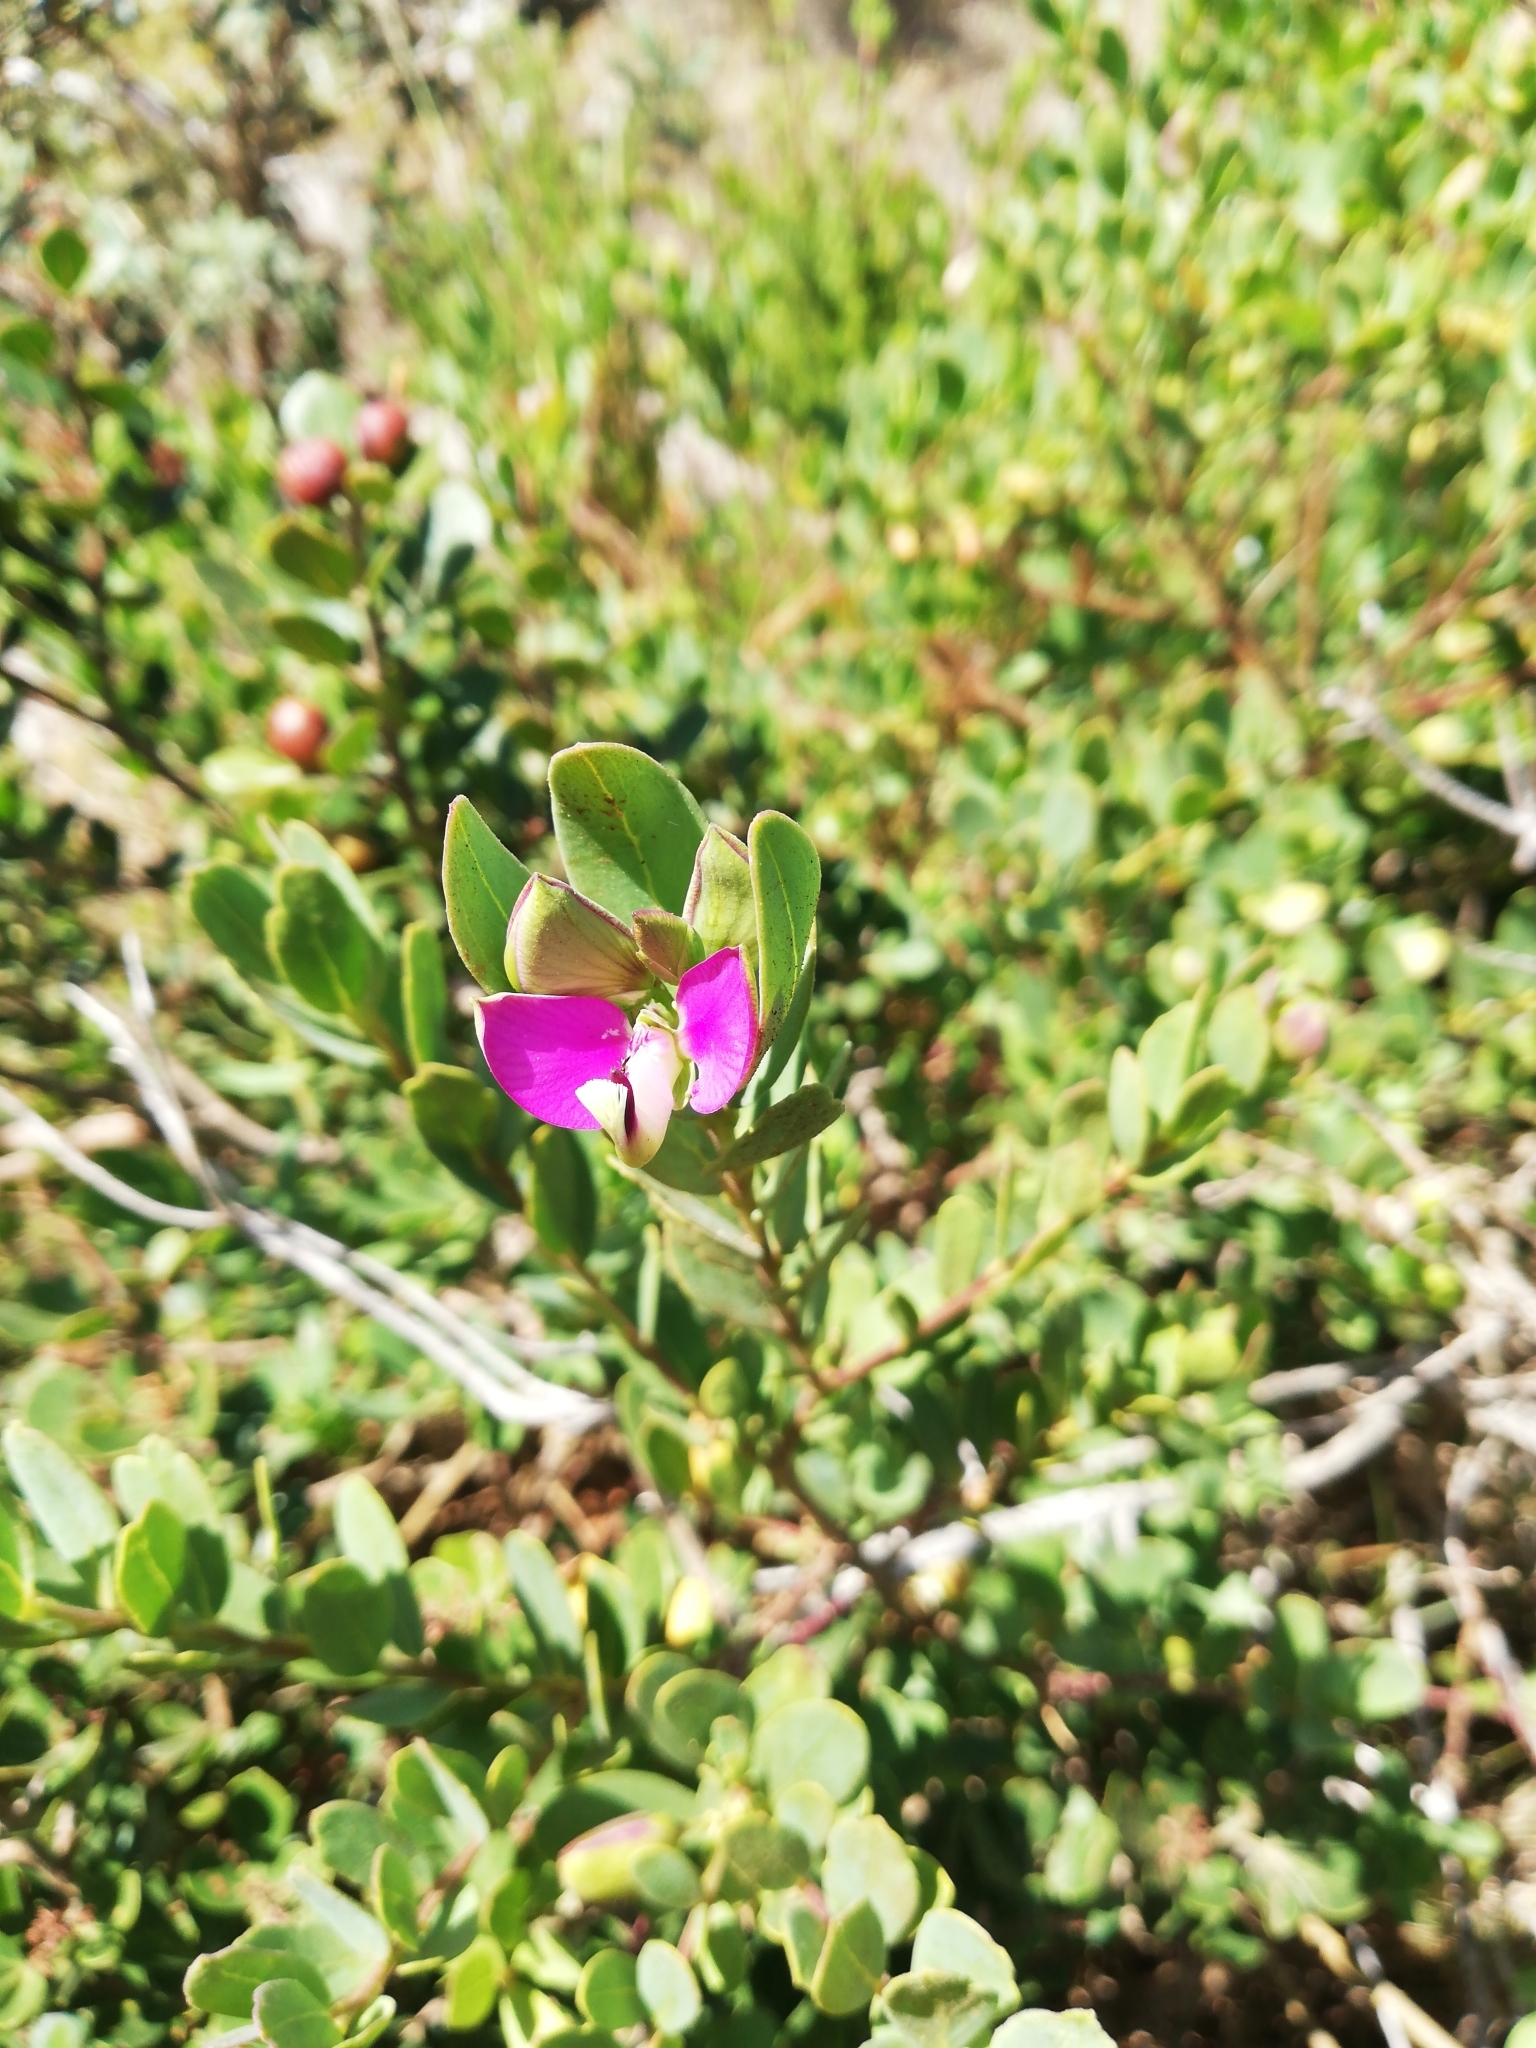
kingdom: Plantae
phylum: Tracheophyta
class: Magnoliopsida
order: Fabales
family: Polygalaceae
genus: Polygala
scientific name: Polygala myrtifolia
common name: Myrtle-leaf milkwort
